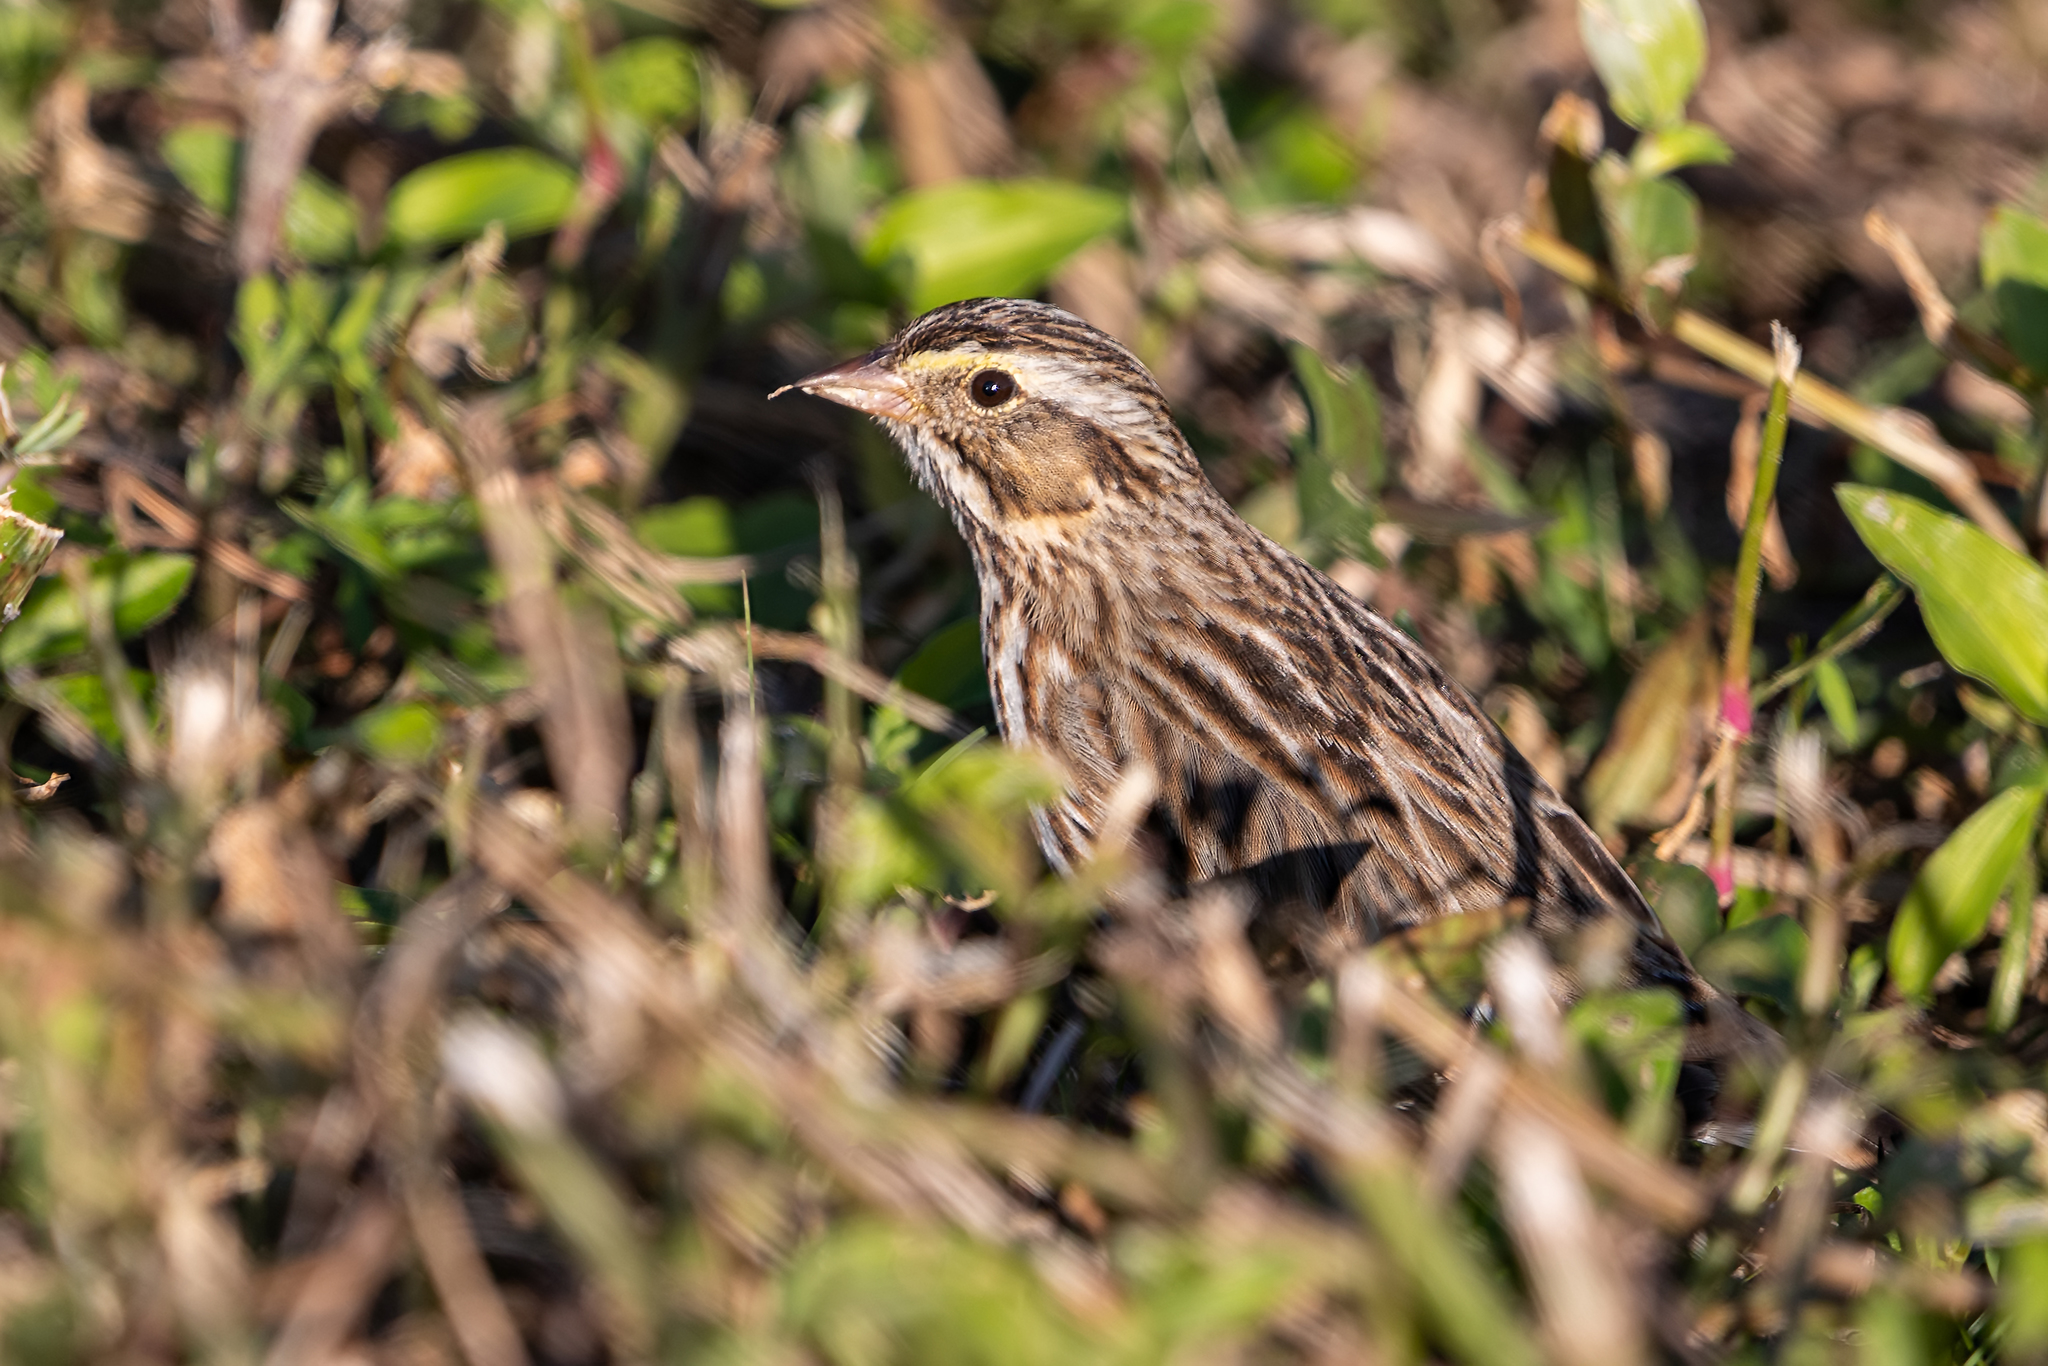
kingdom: Animalia
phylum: Chordata
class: Aves
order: Passeriformes
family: Passerellidae
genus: Passerculus
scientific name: Passerculus sandwichensis
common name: Savannah sparrow
